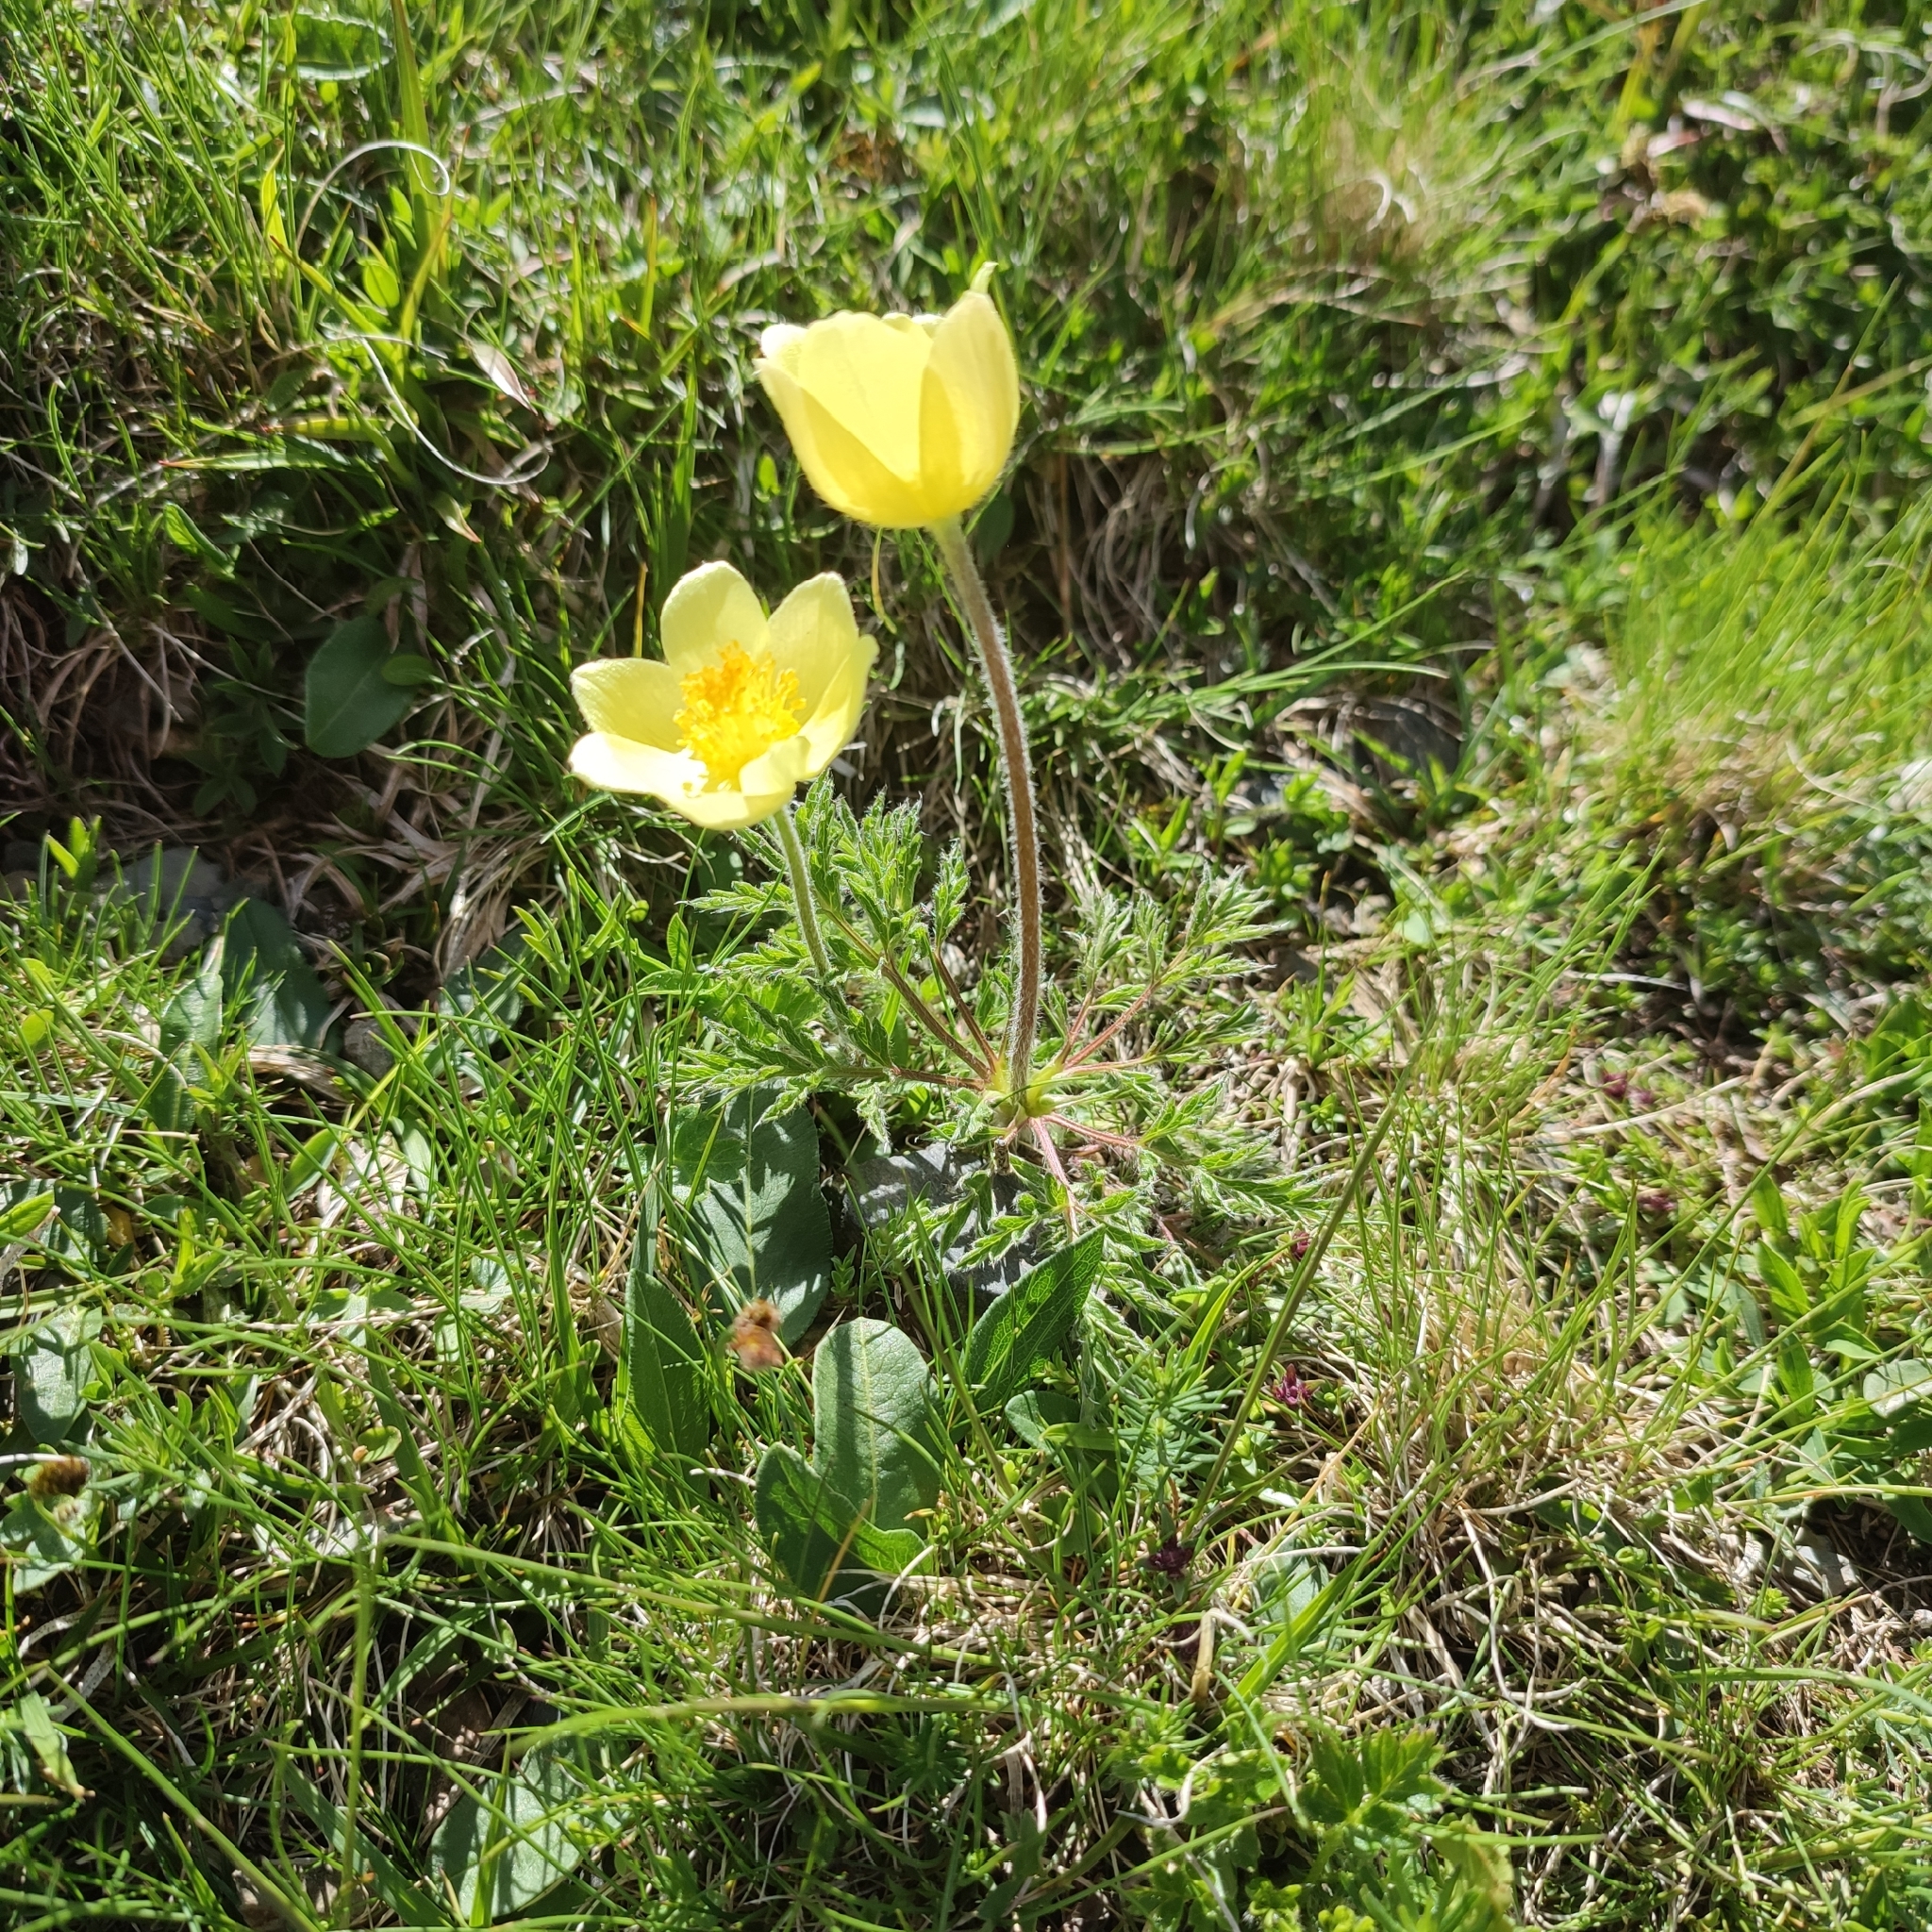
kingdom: Plantae
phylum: Tracheophyta
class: Magnoliopsida
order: Ranunculales
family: Ranunculaceae
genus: Pulsatilla
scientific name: Pulsatilla alpina
